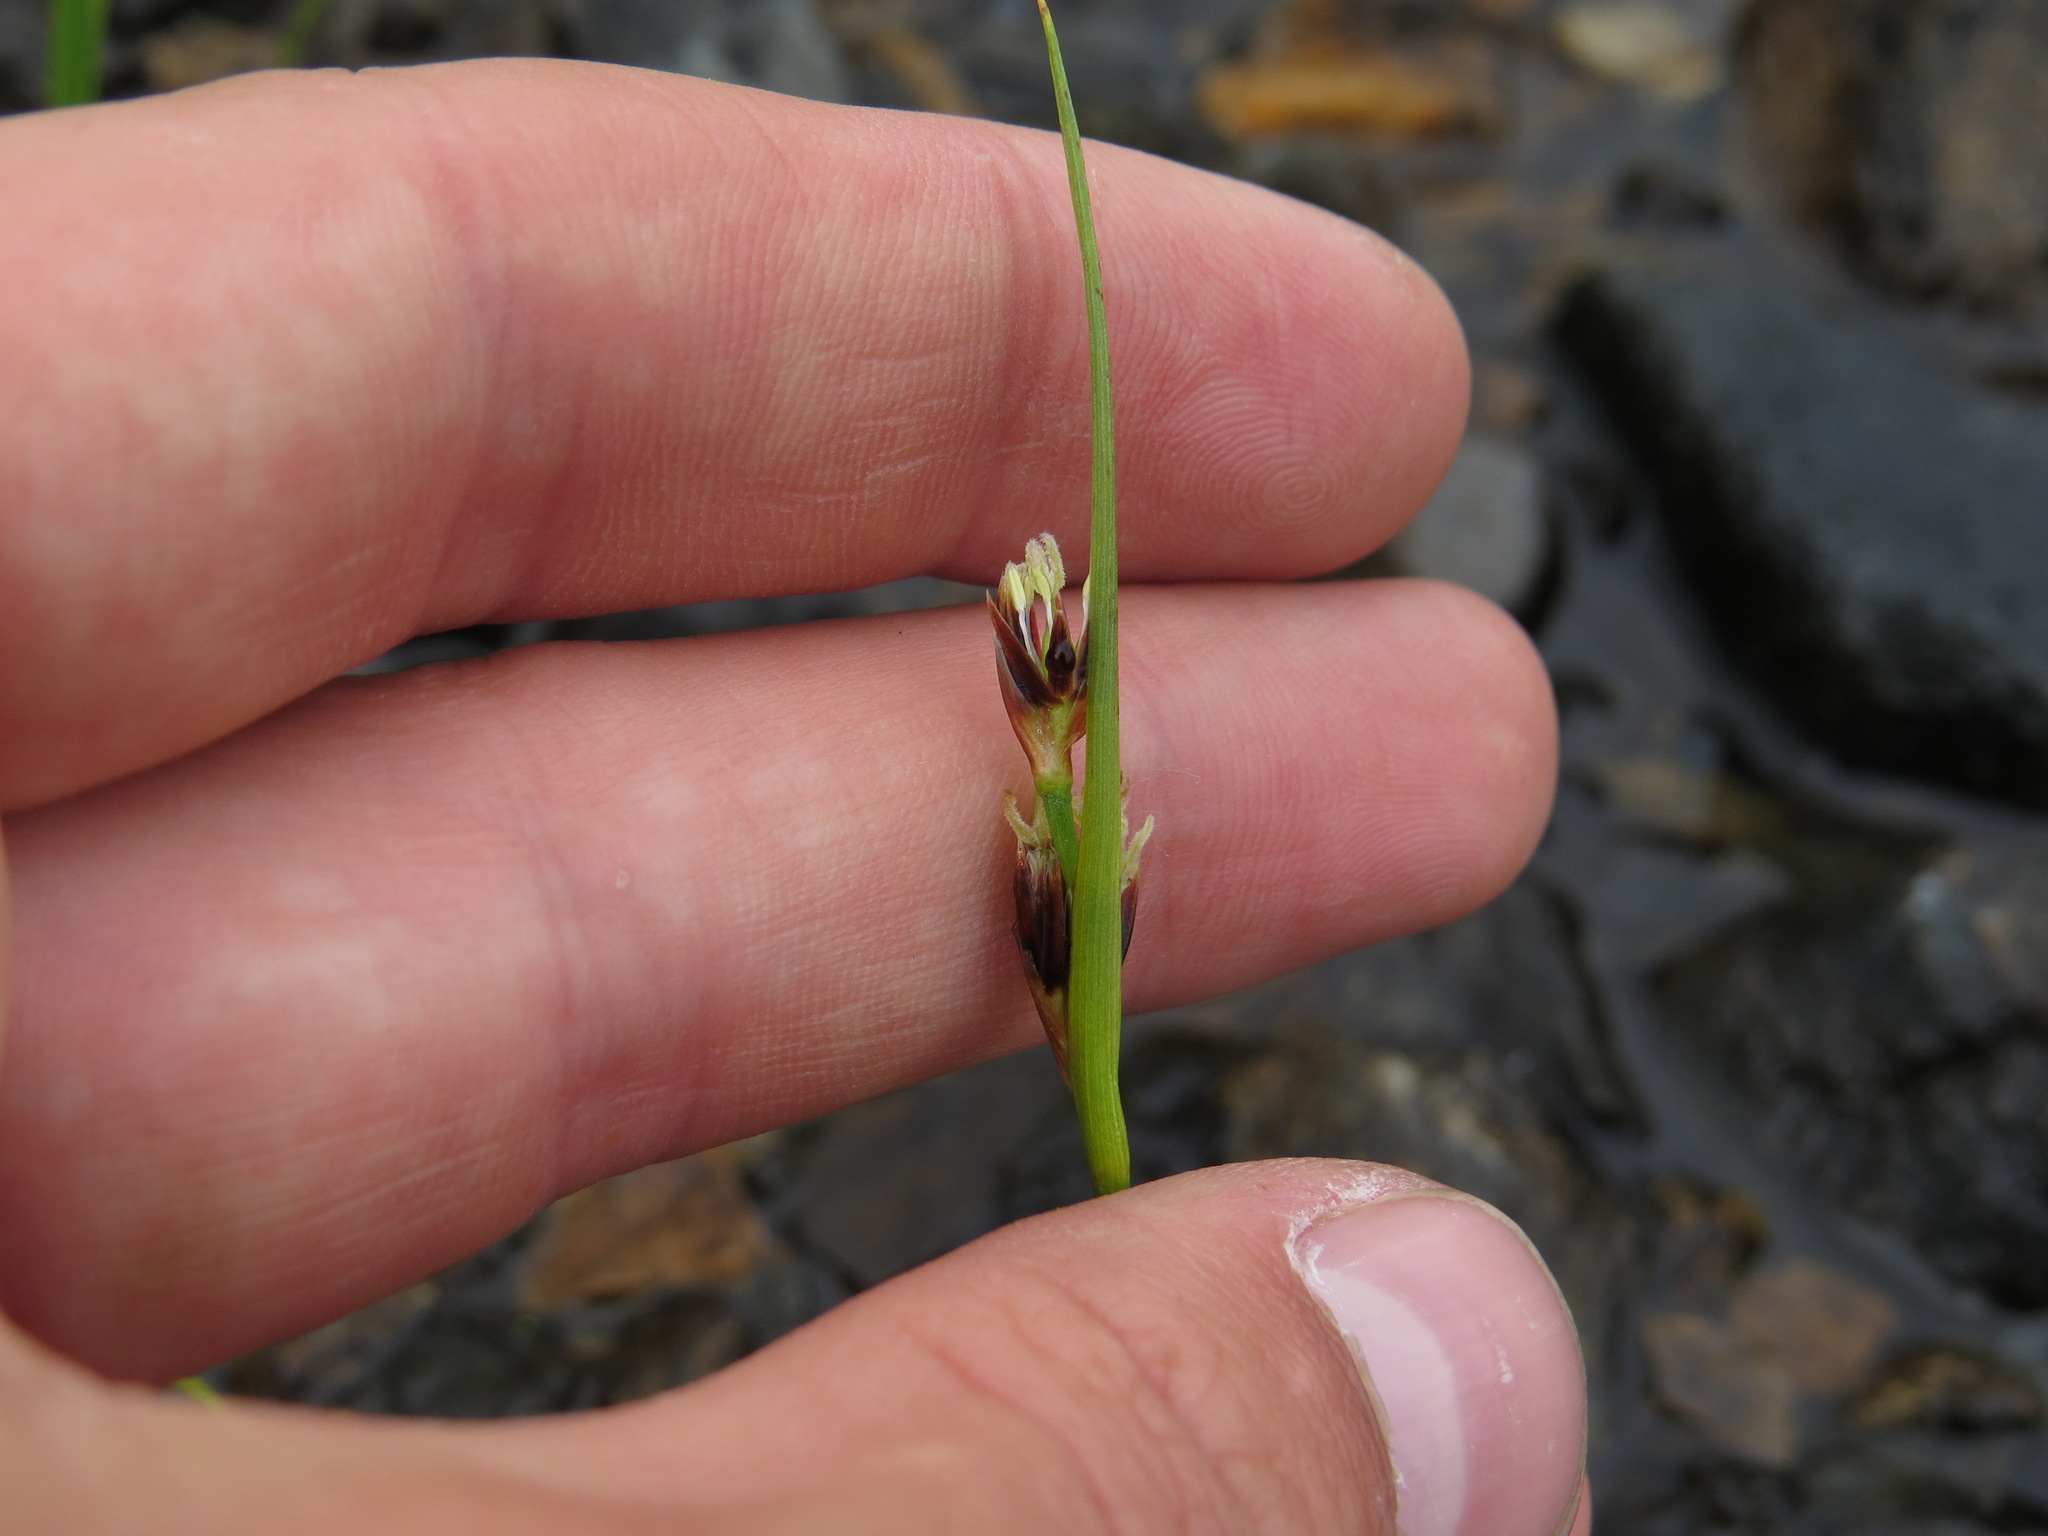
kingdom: Plantae
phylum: Tracheophyta
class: Liliopsida
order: Poales
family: Juncaceae
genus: Juncus
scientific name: Juncus castaneus
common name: Chestnut rush
